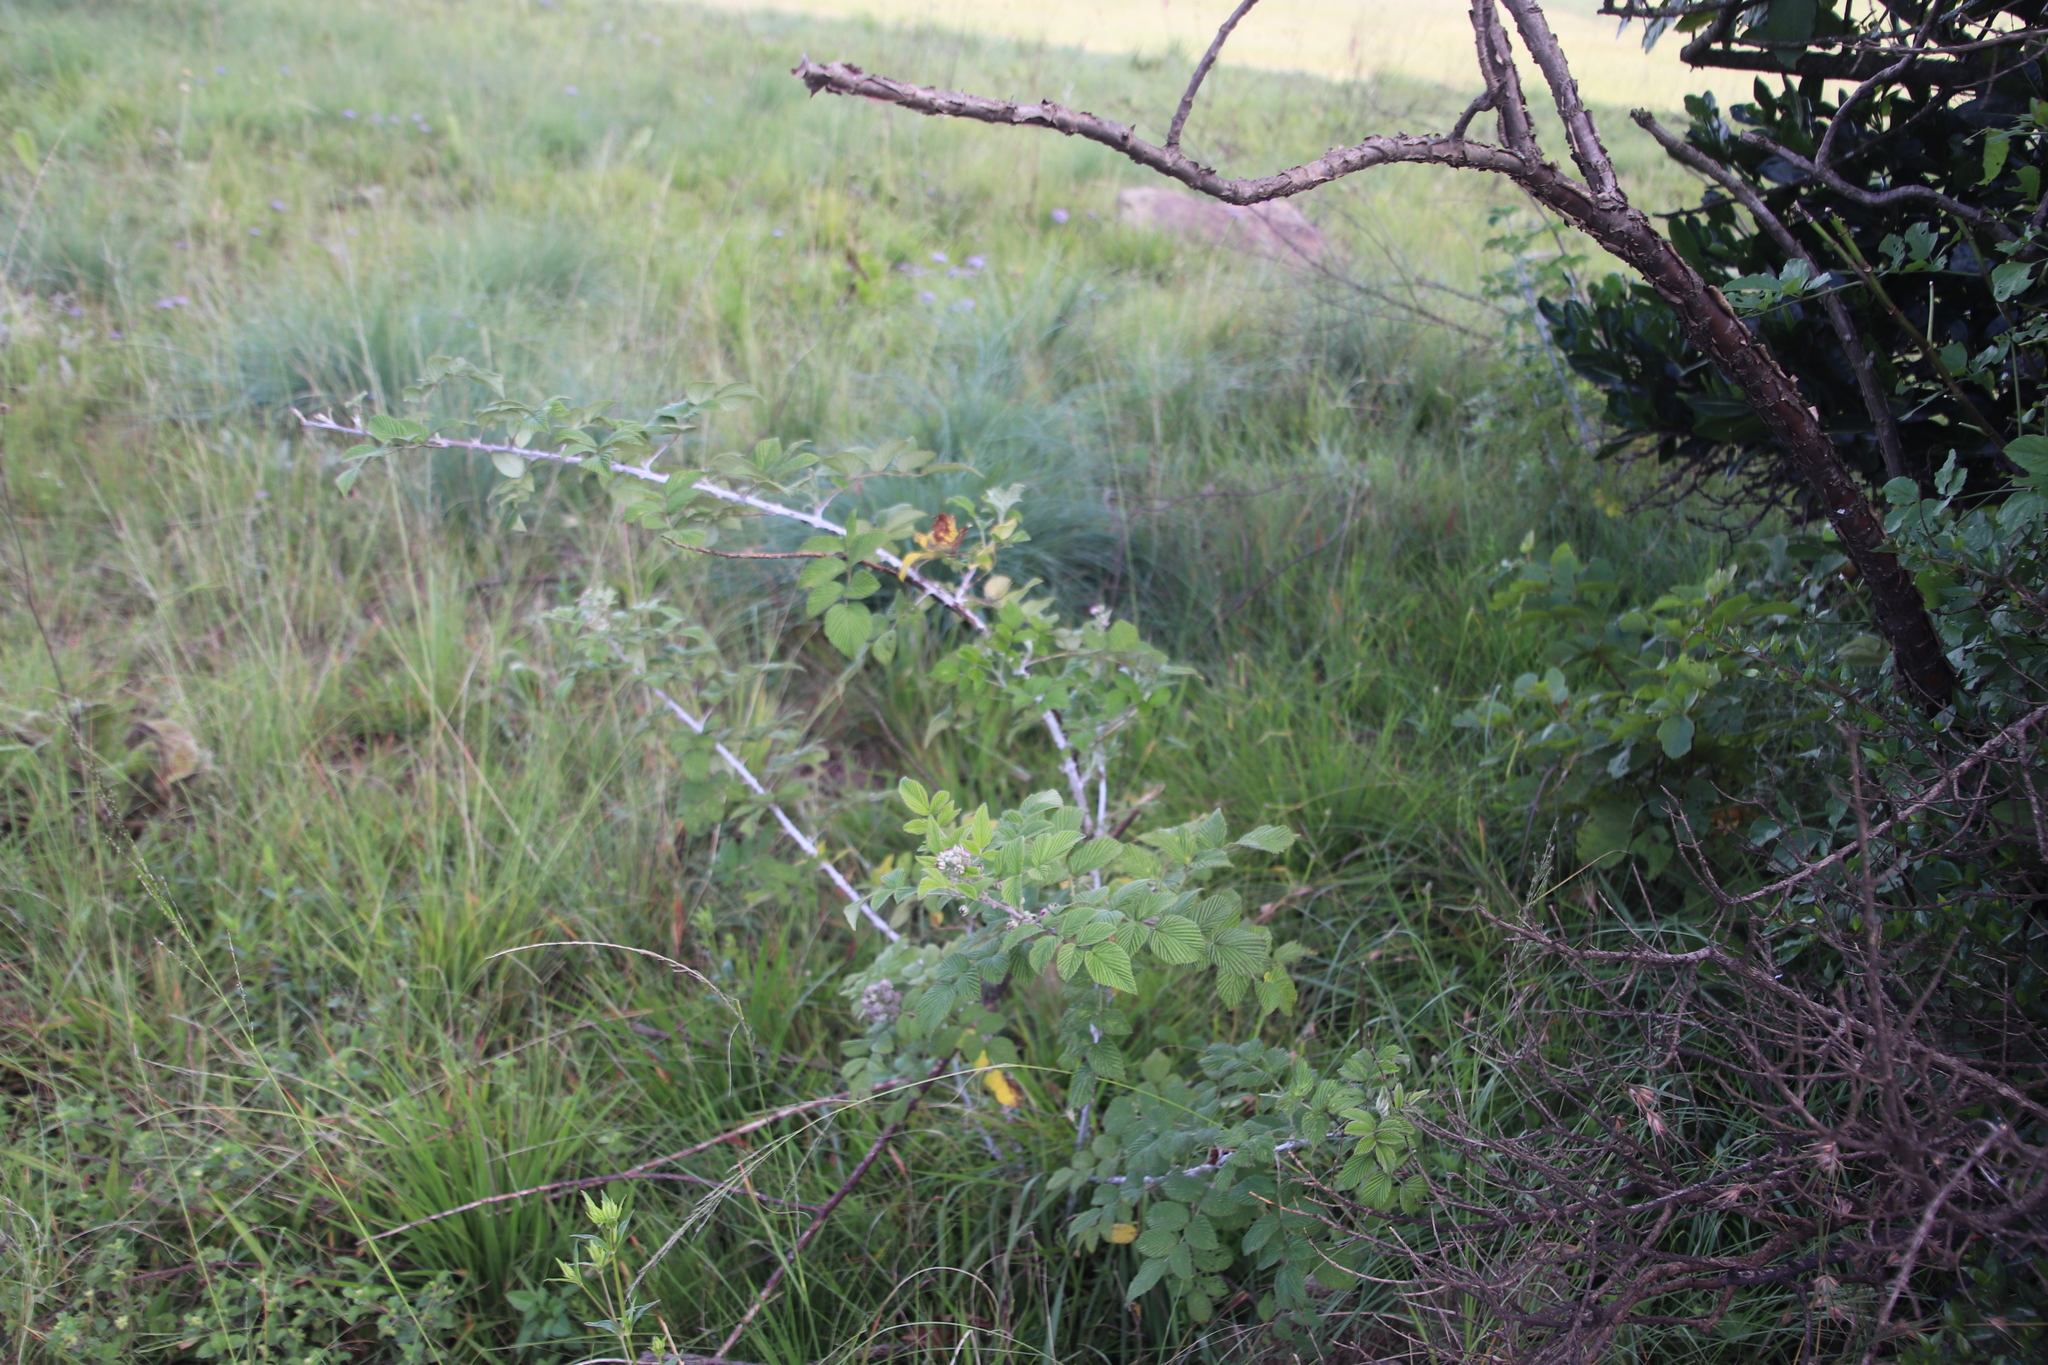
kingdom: Plantae
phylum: Tracheophyta
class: Magnoliopsida
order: Rosales
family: Rosaceae
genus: Rubus
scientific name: Rubus niveus
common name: Snowpeaks raspberry
